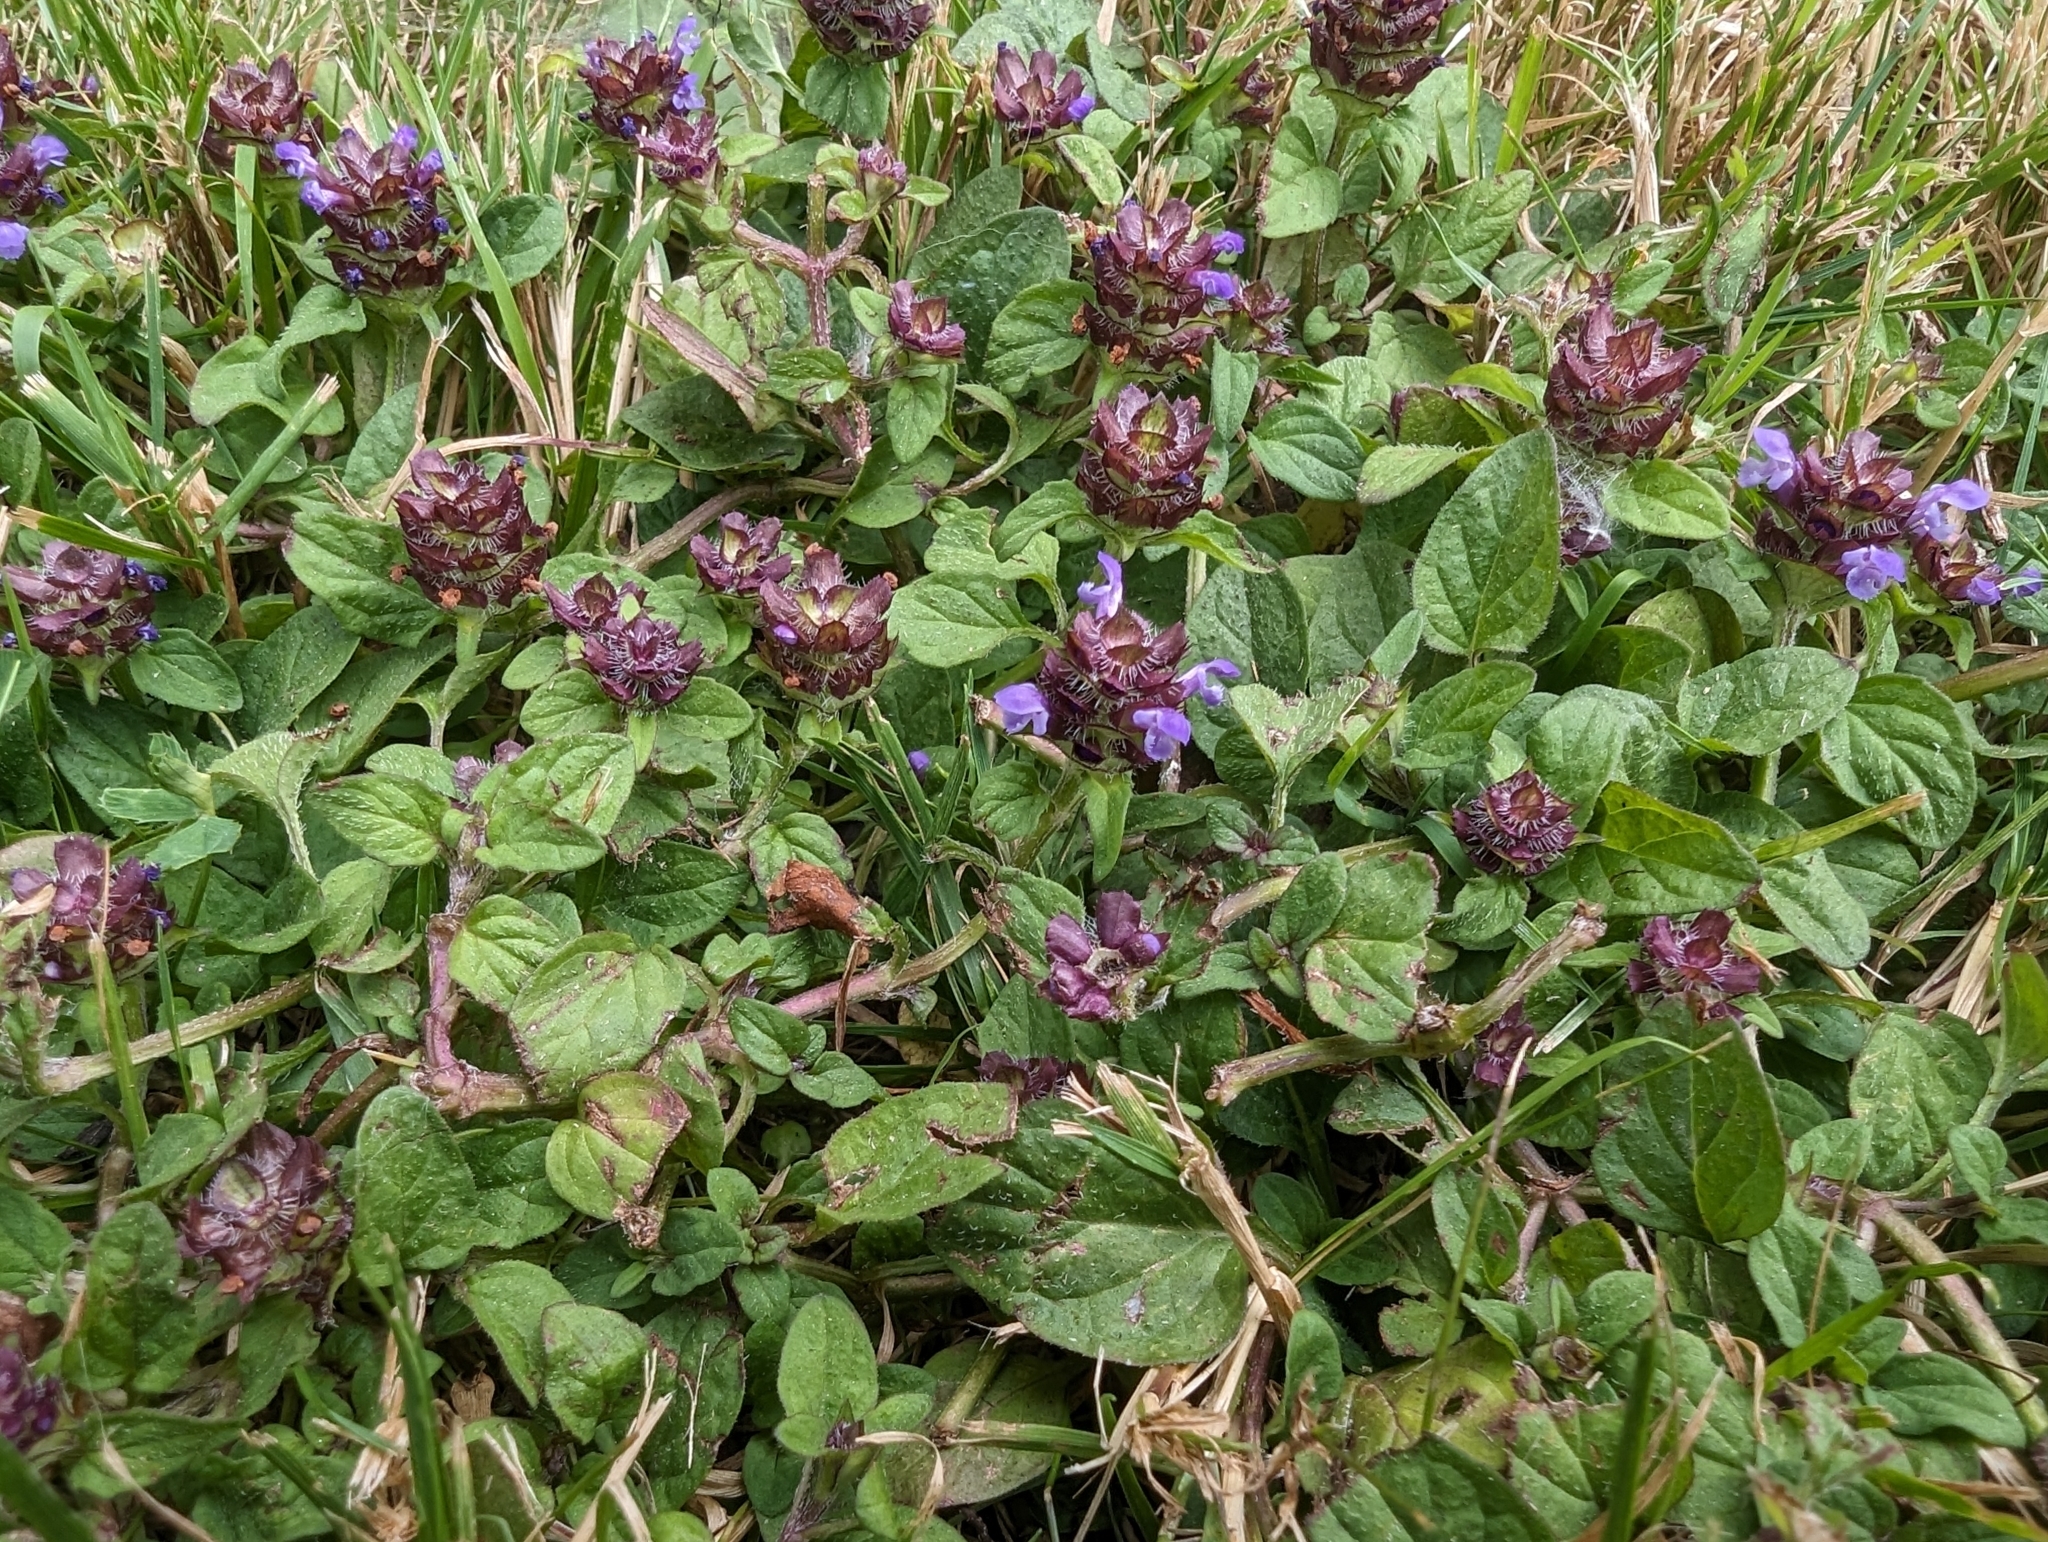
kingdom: Plantae
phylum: Tracheophyta
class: Magnoliopsida
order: Lamiales
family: Lamiaceae
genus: Prunella
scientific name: Prunella vulgaris
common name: Heal-all
